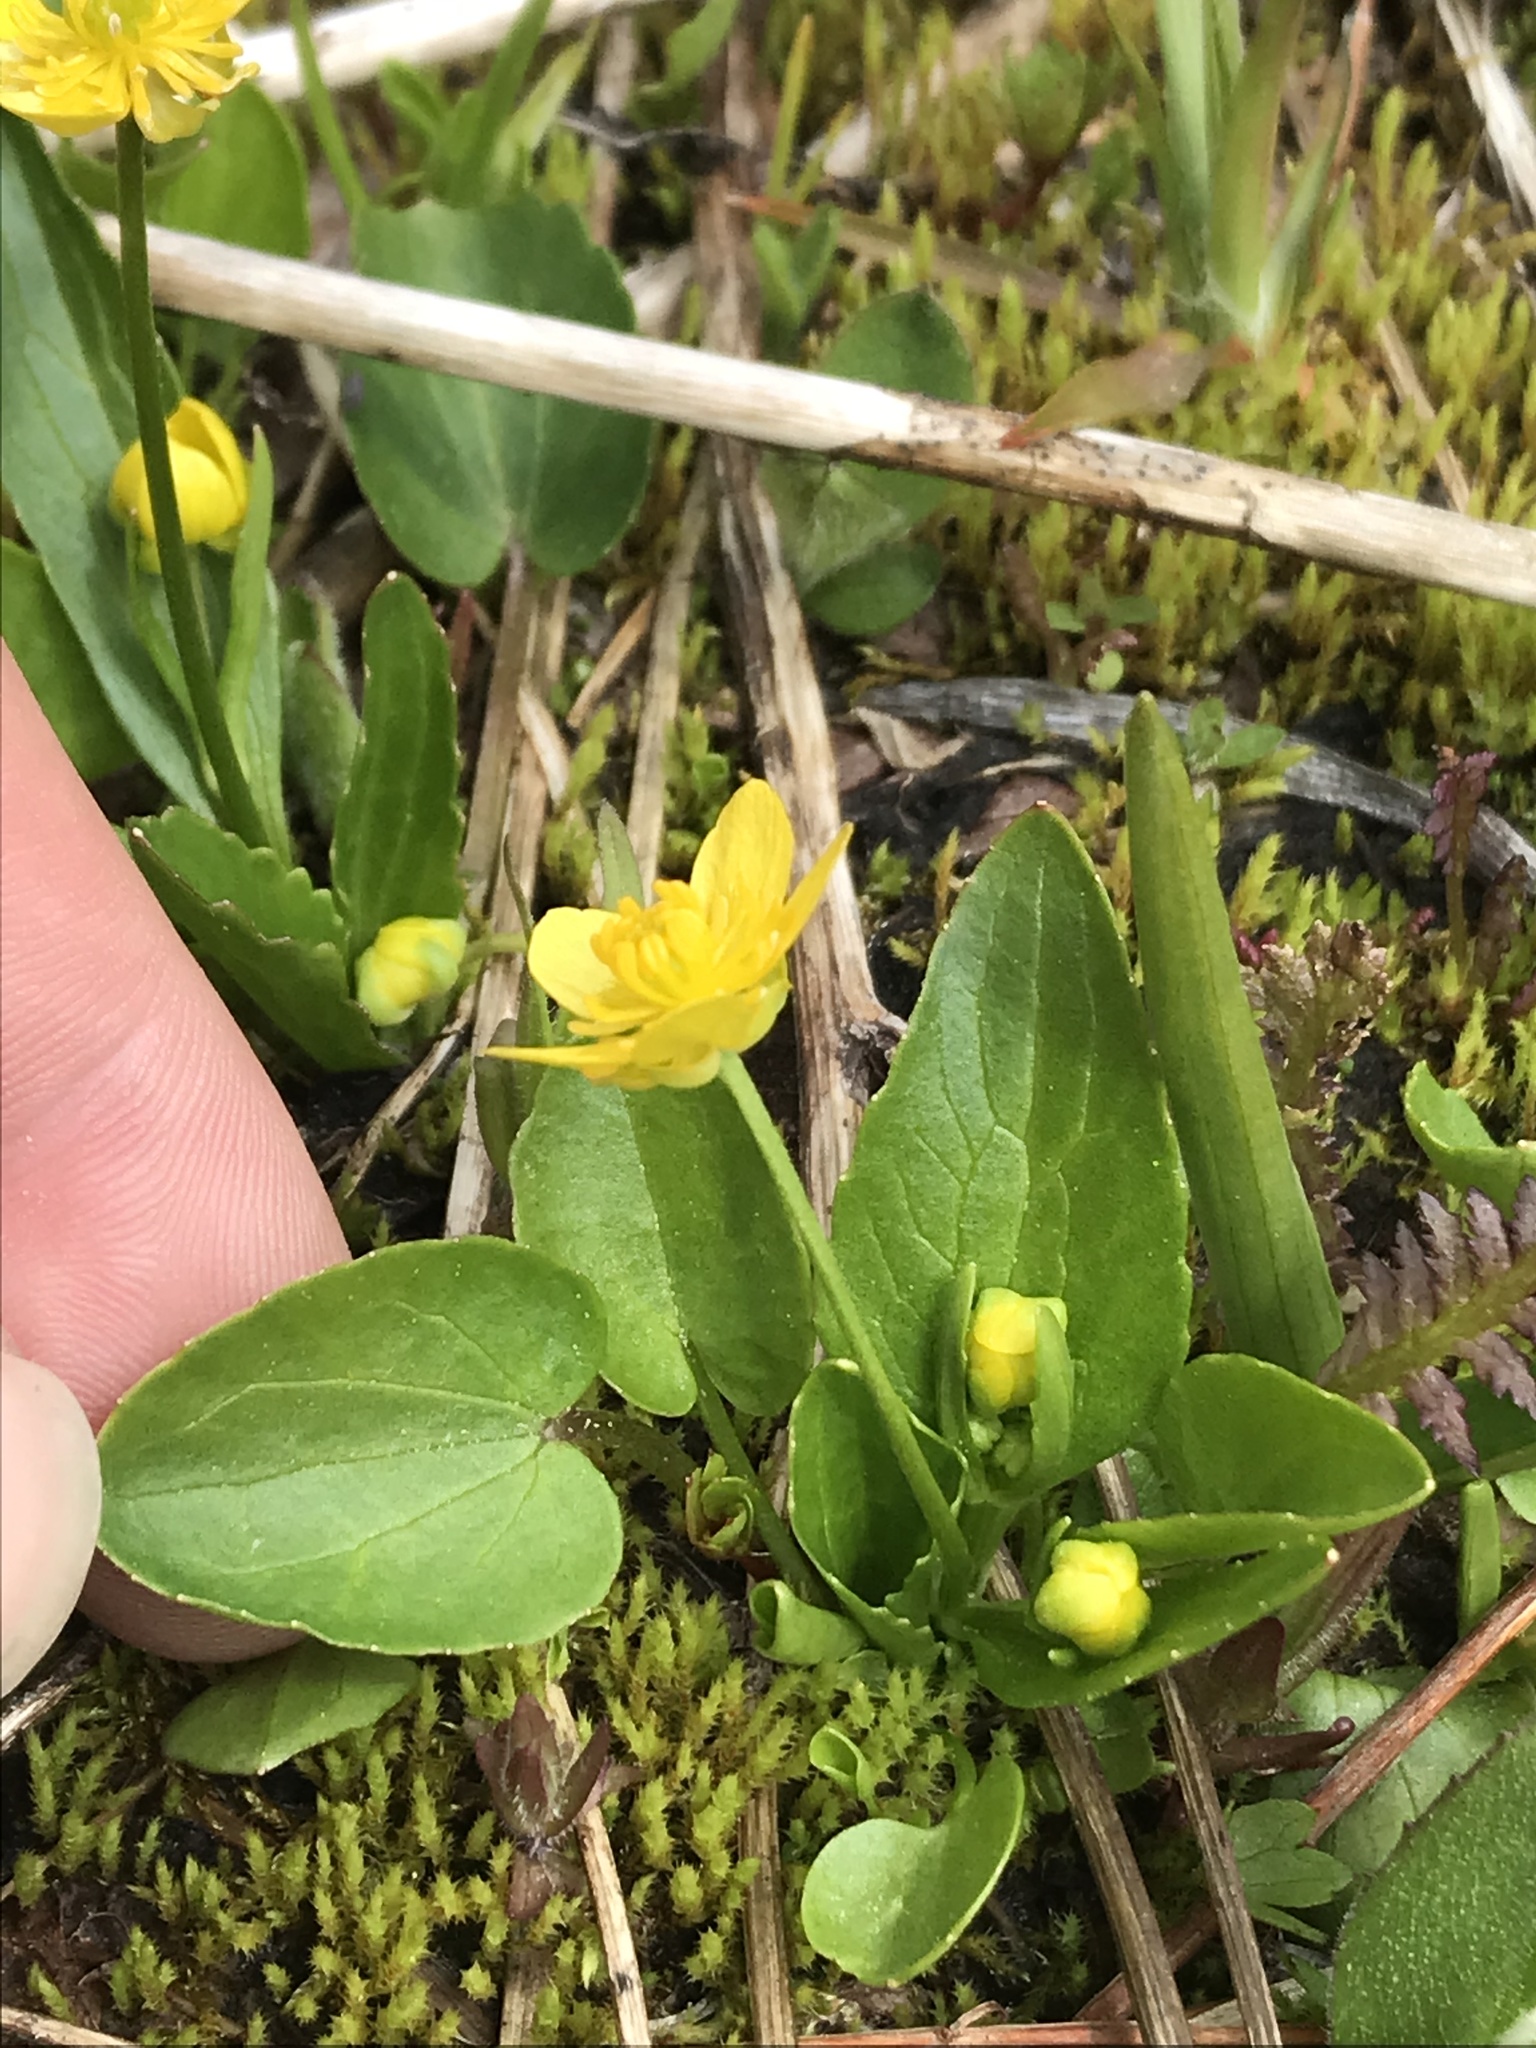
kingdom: Plantae
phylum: Tracheophyta
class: Magnoliopsida
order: Ranunculales
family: Ranunculaceae
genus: Ranunculus
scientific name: Ranunculus populago
